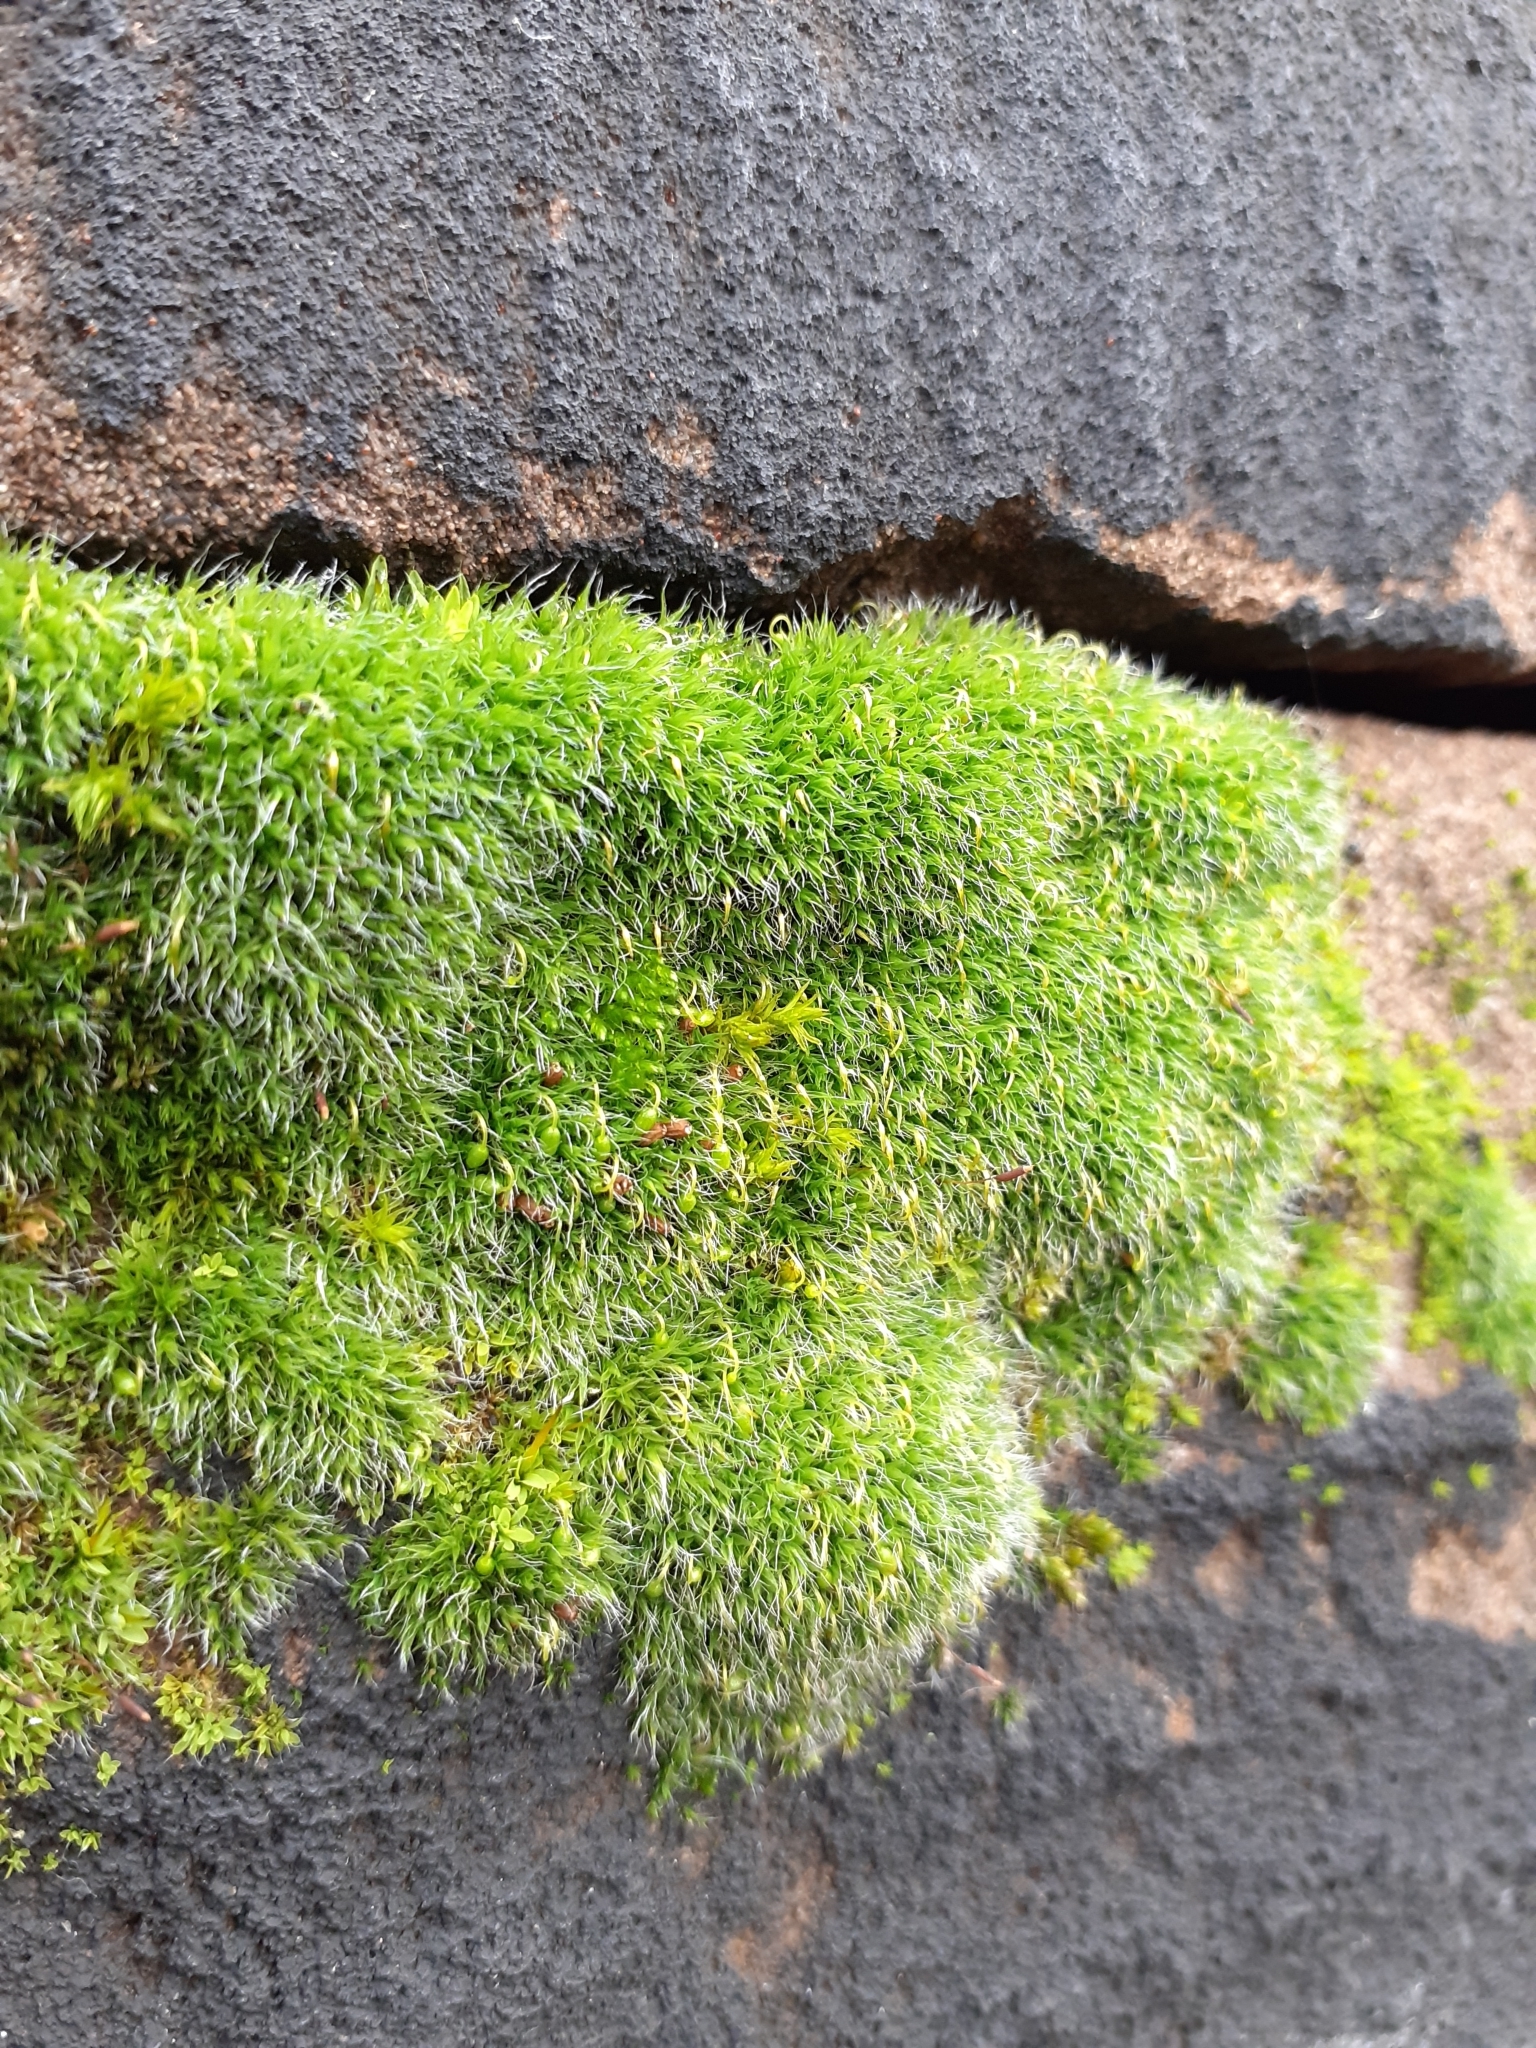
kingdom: Plantae
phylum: Bryophyta
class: Bryopsida
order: Grimmiales
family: Grimmiaceae
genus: Grimmia
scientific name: Grimmia pulvinata
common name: Grey-cushioned grimmia
